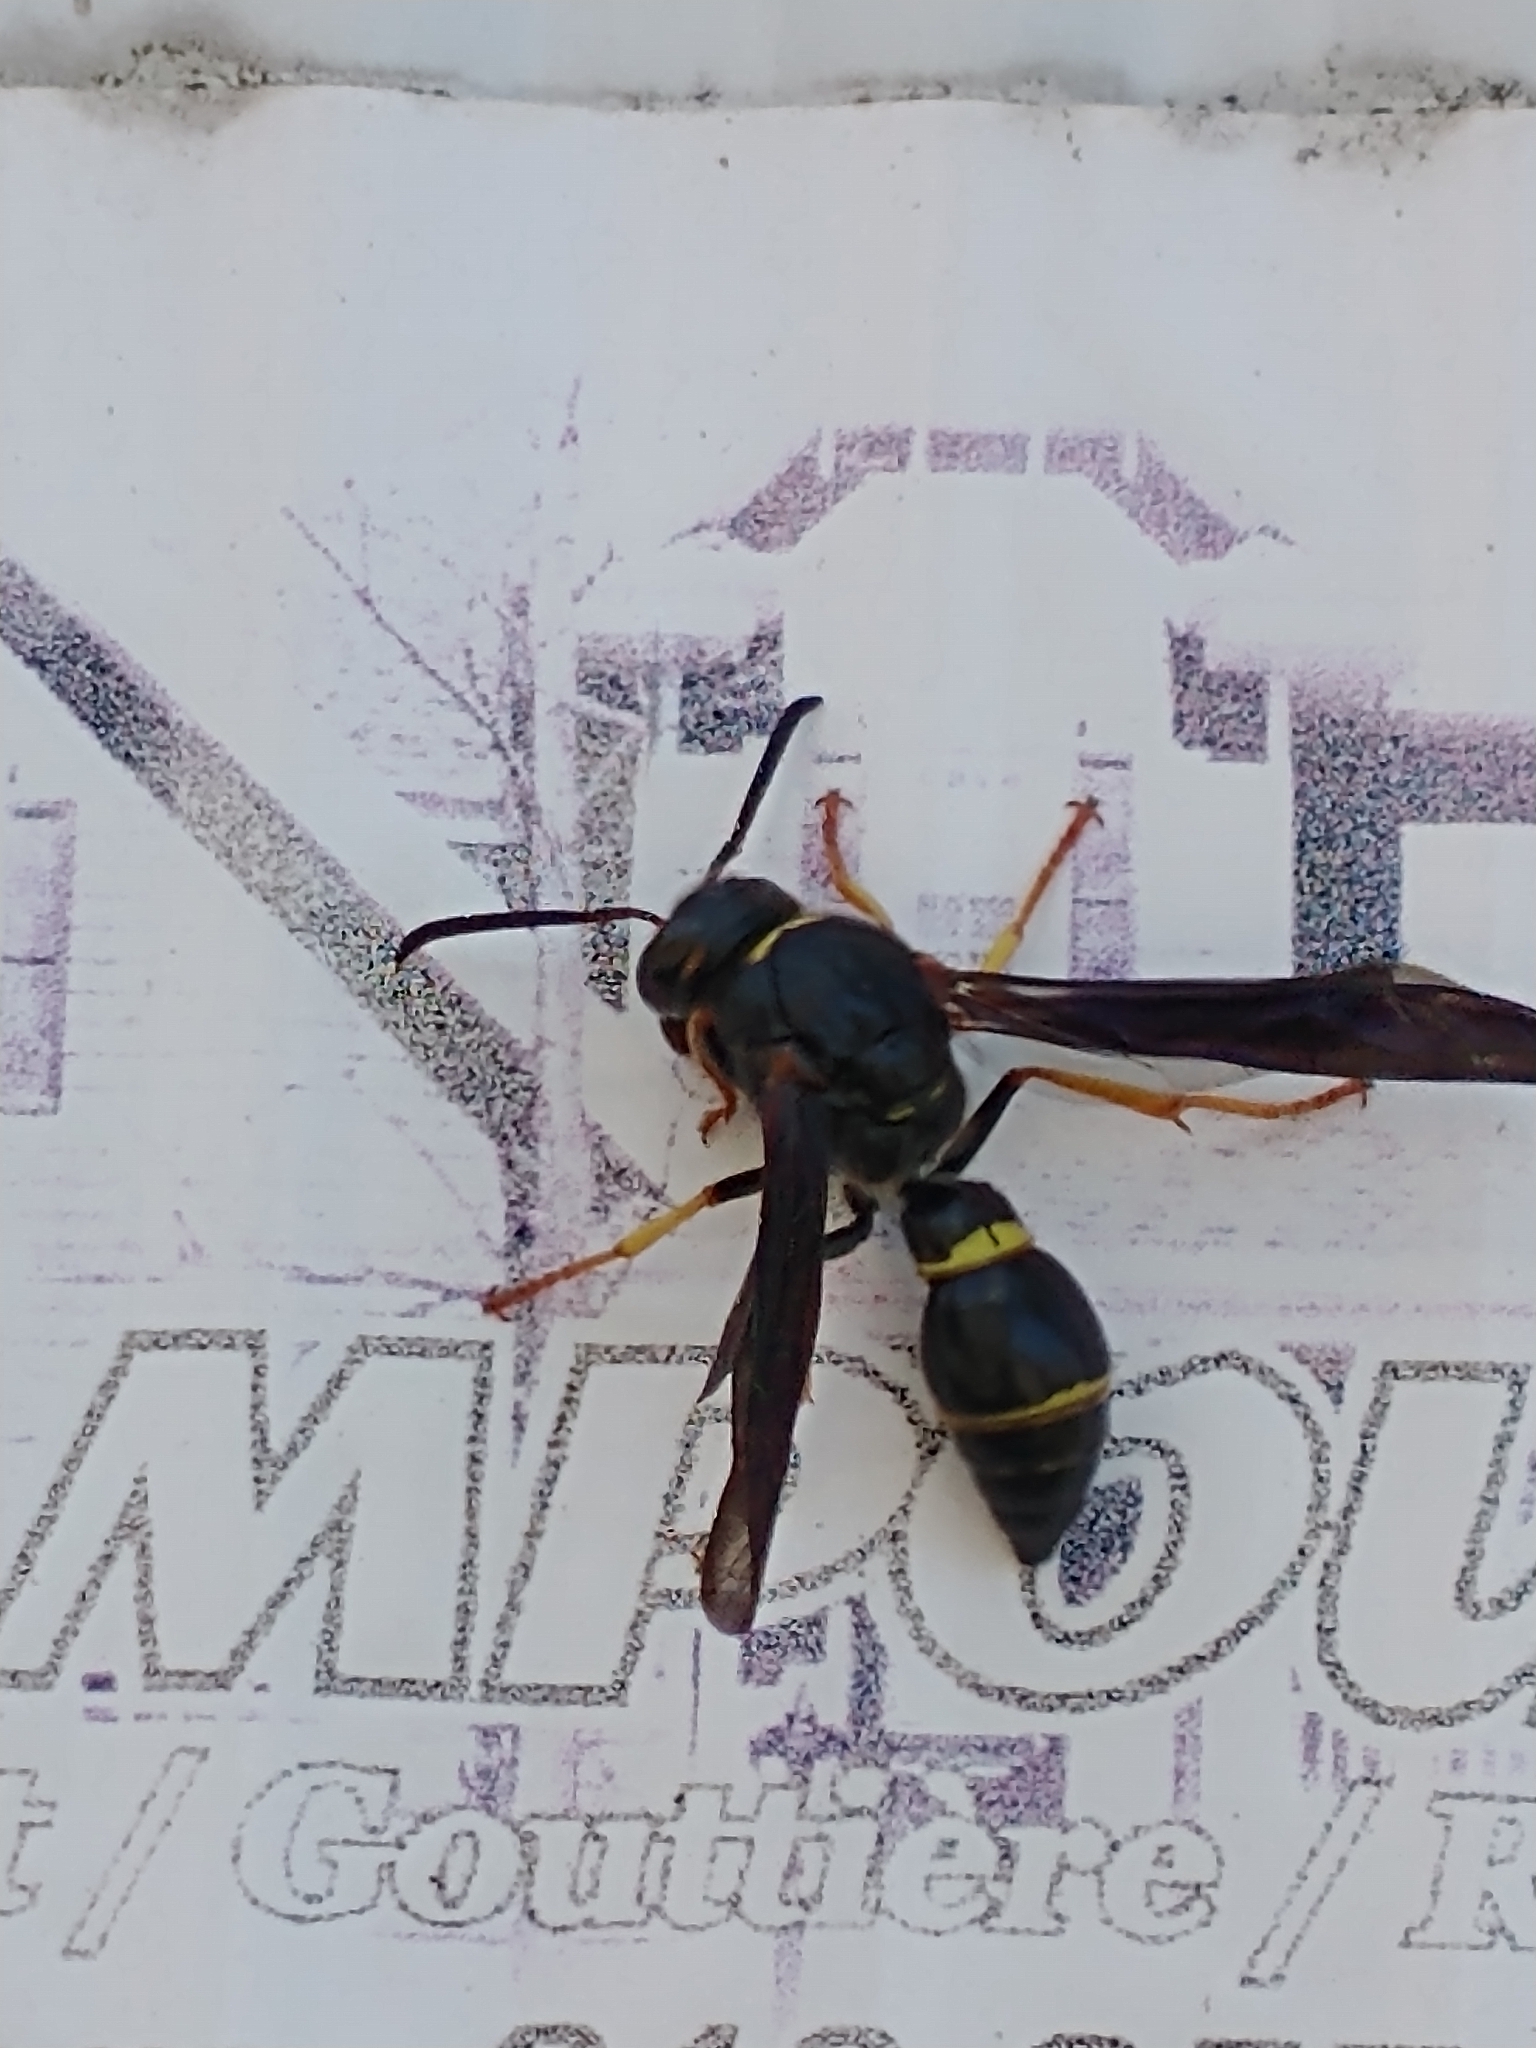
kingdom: Animalia
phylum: Arthropoda
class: Insecta
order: Hymenoptera
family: Eumenidae
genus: Parazumia
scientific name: Parazumia symmorpha
